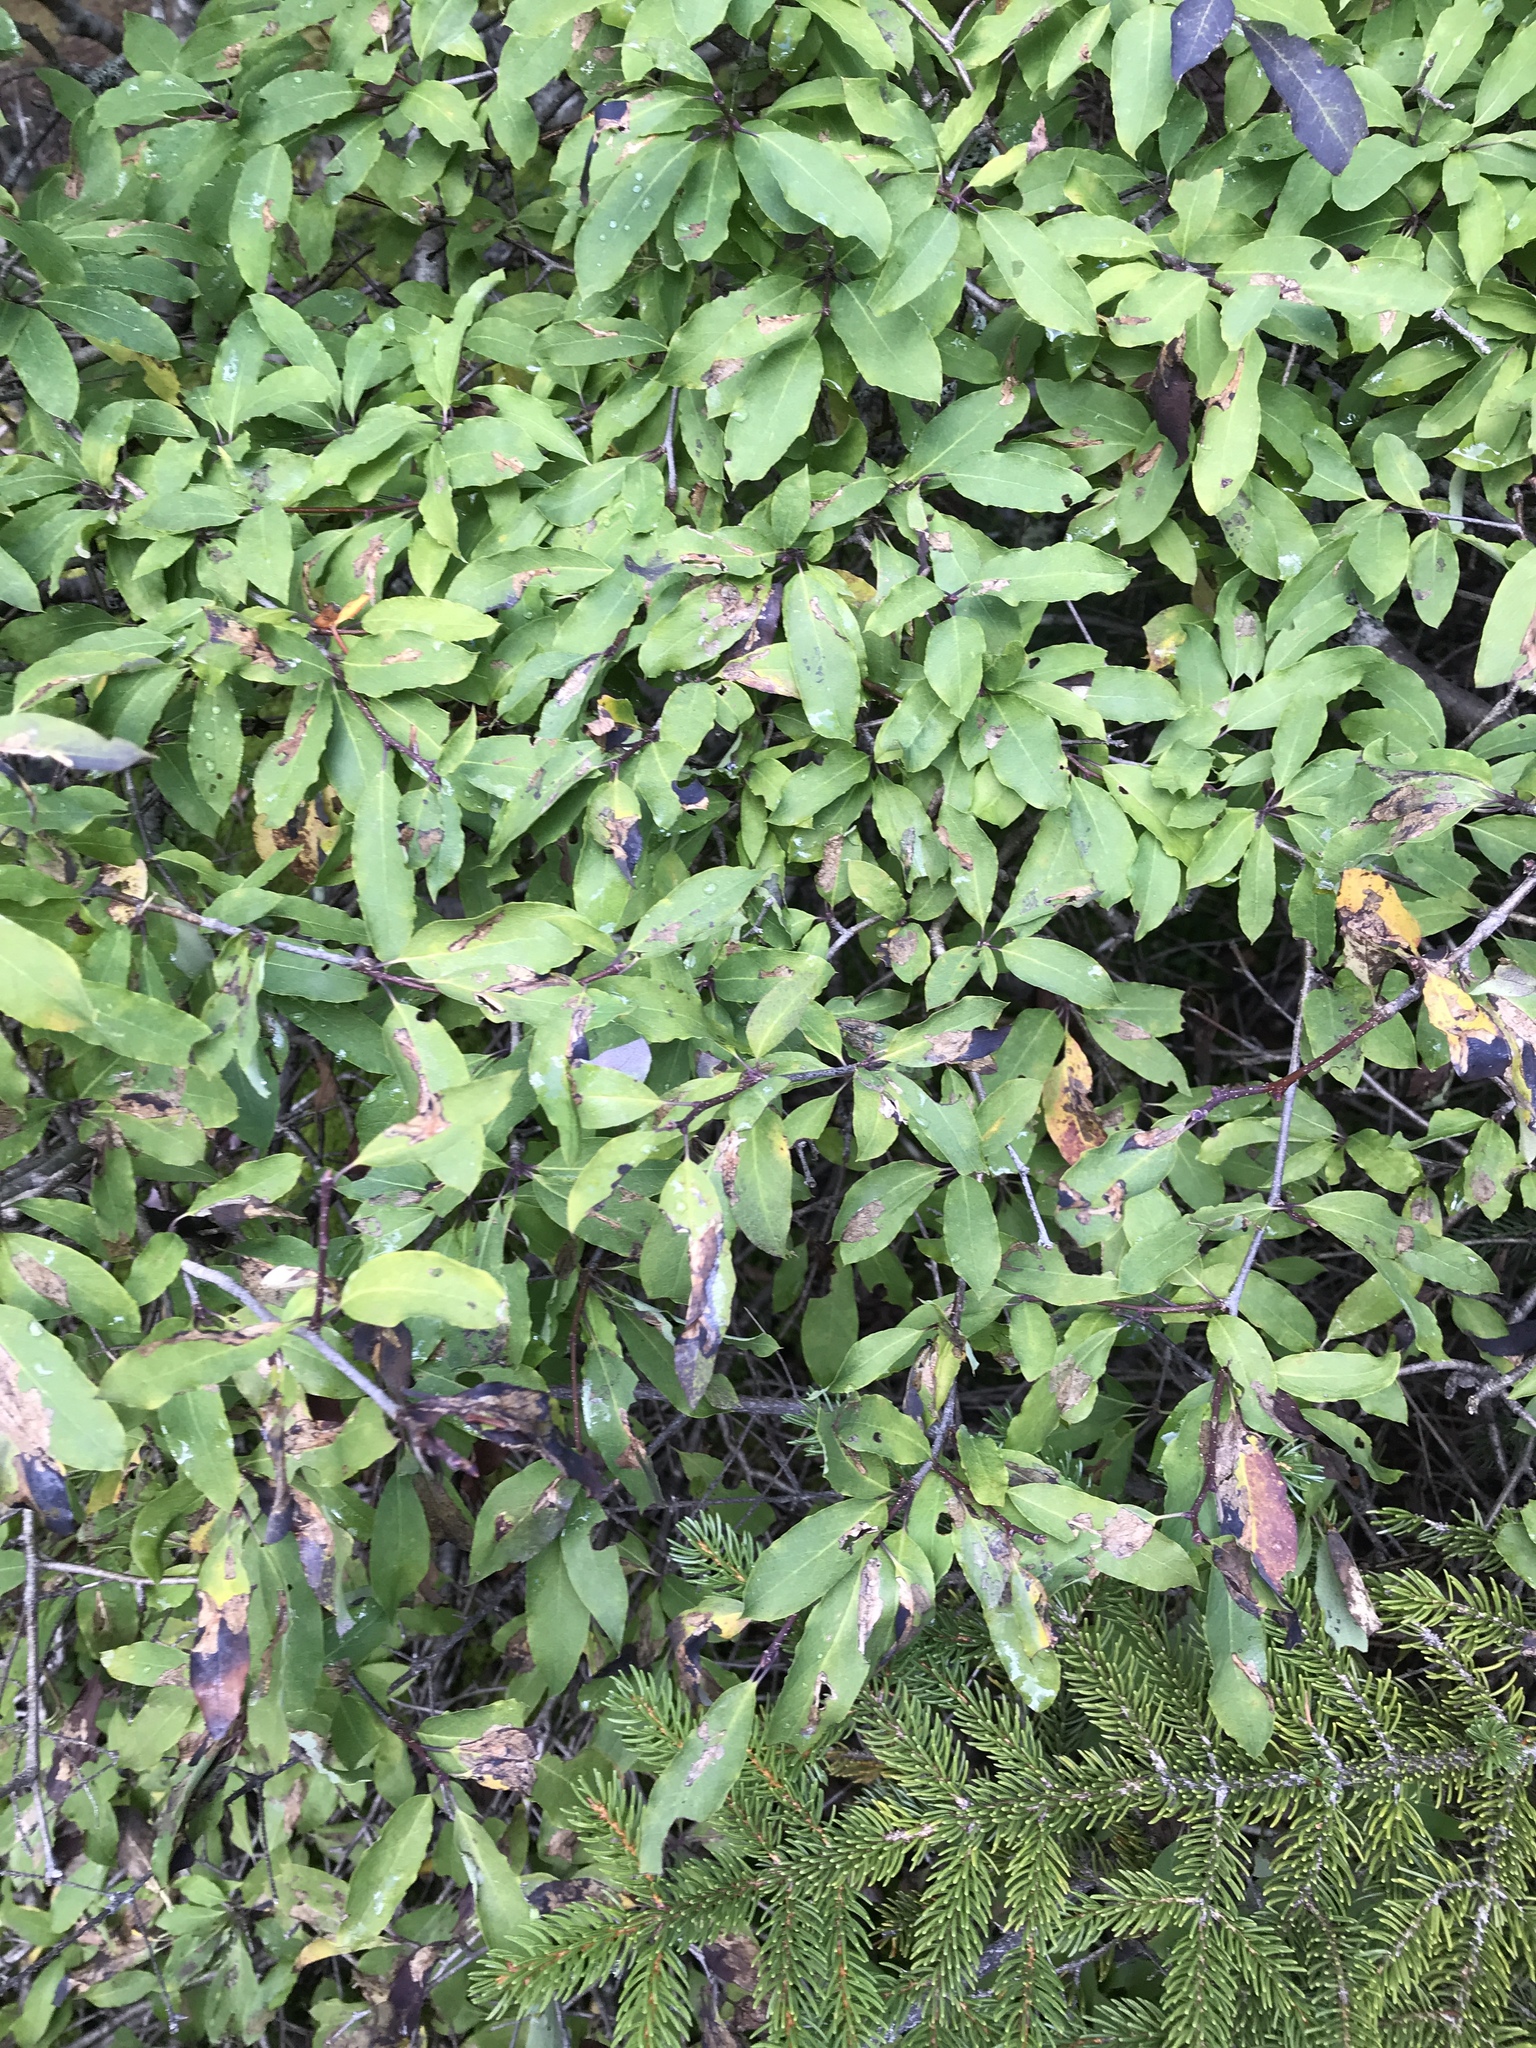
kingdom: Plantae
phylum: Tracheophyta
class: Magnoliopsida
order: Aquifoliales
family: Aquifoliaceae
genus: Ilex
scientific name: Ilex mucronata
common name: Catberry
